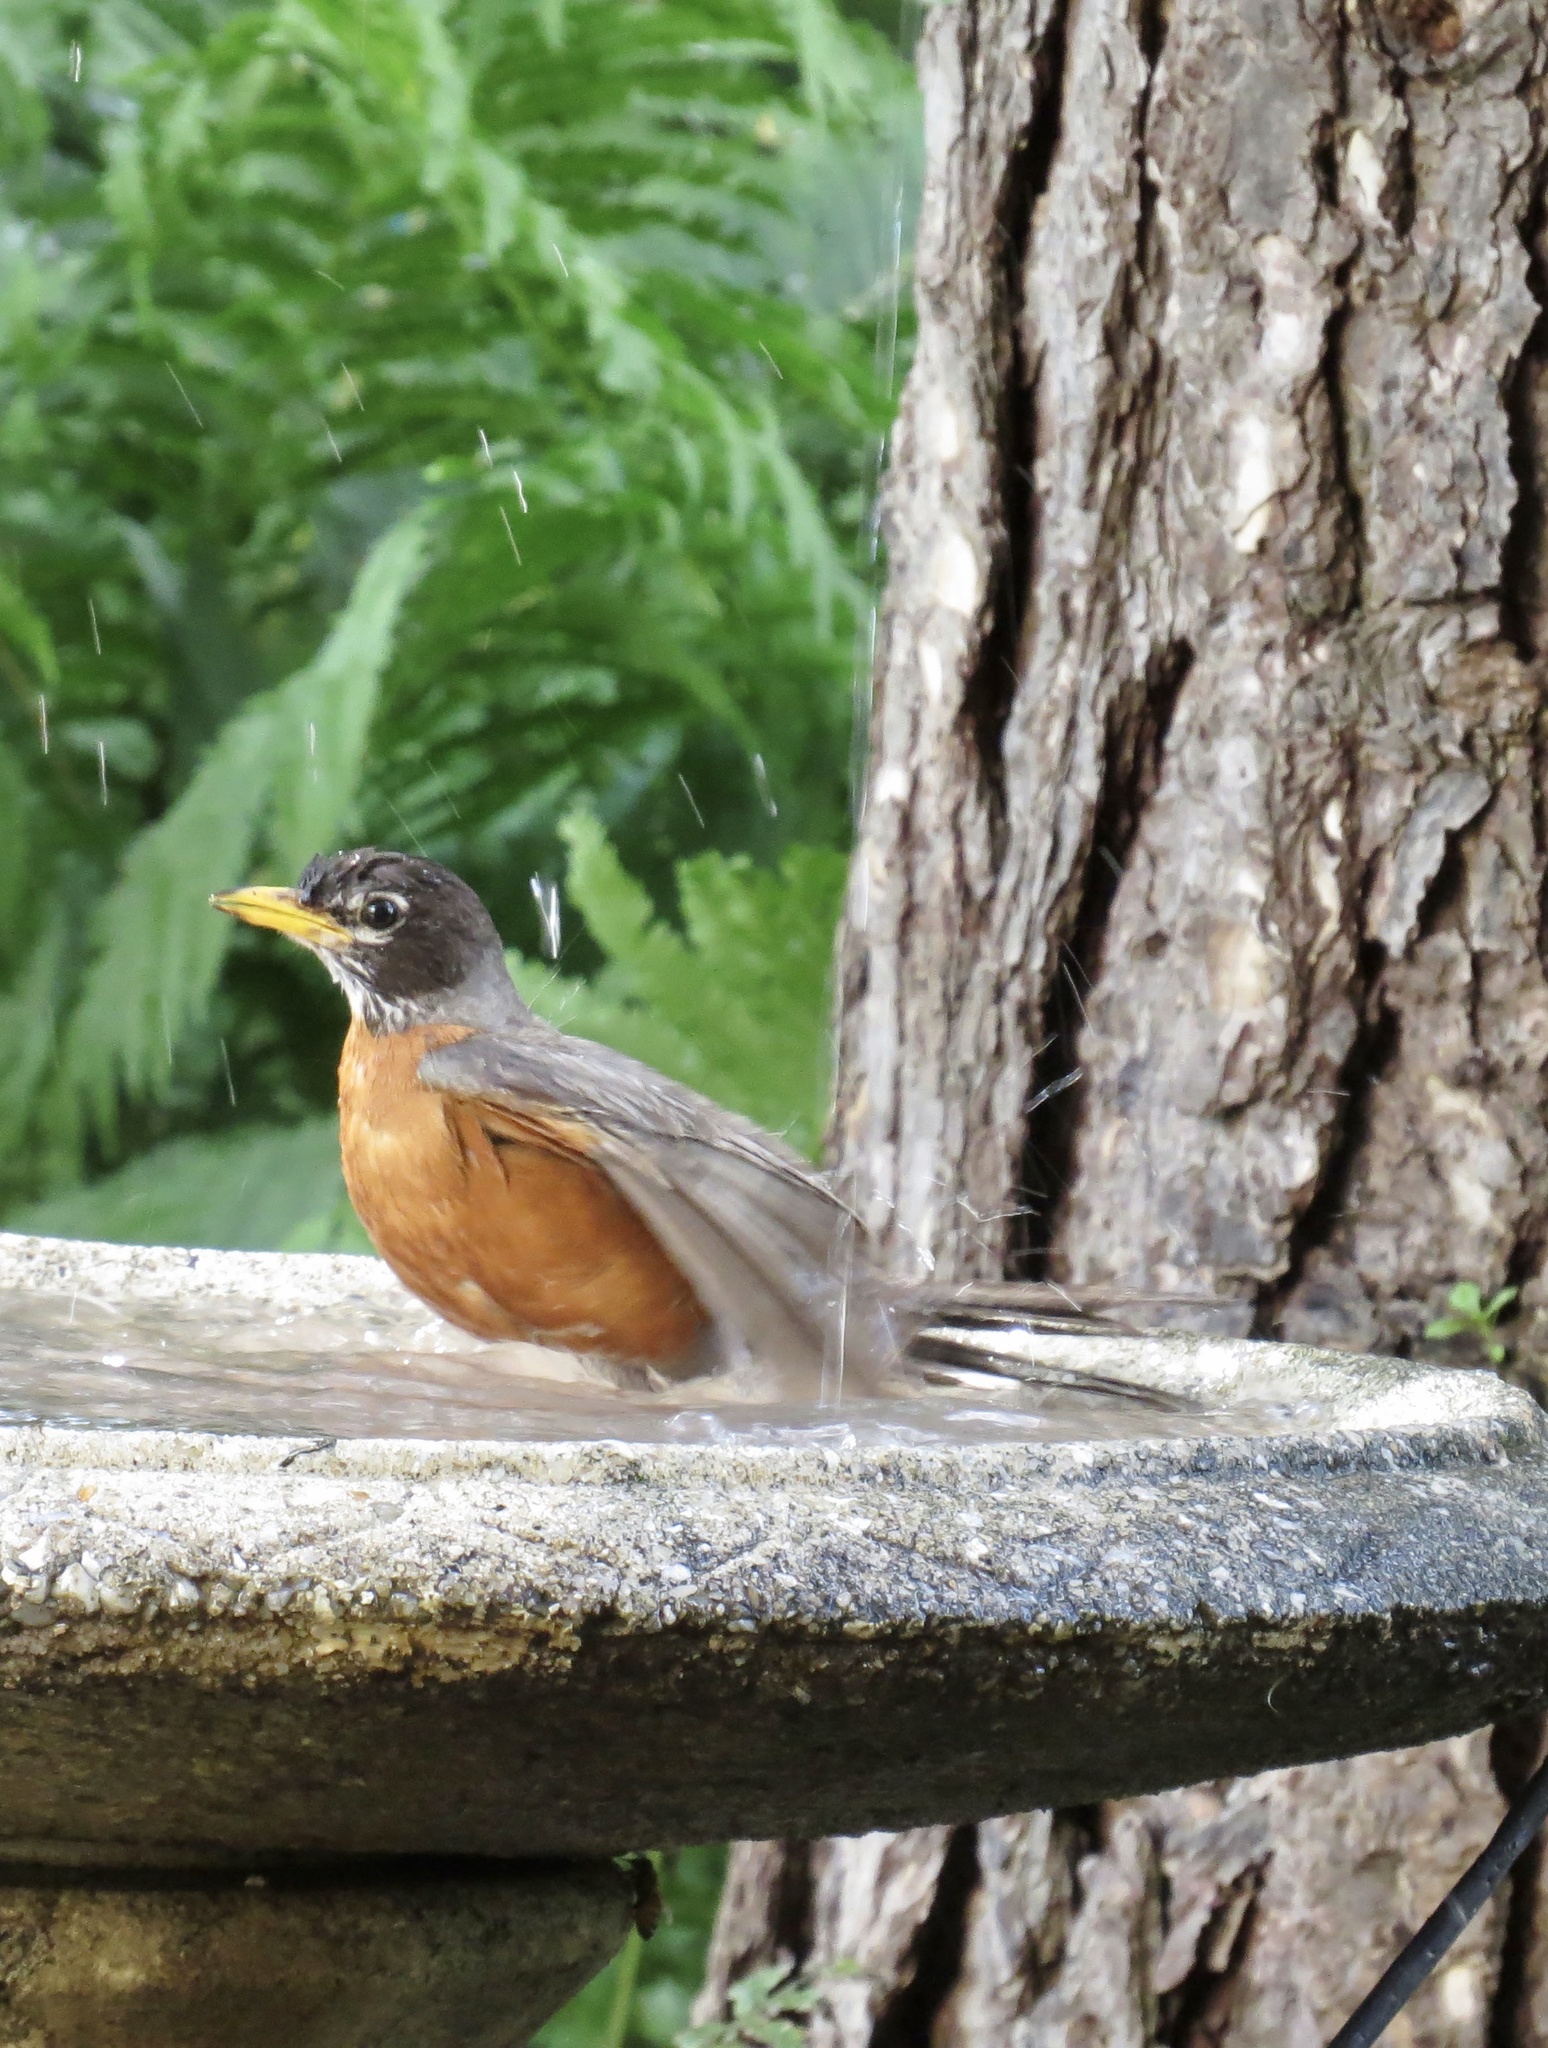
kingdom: Animalia
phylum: Chordata
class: Aves
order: Passeriformes
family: Turdidae
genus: Turdus
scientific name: Turdus migratorius
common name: American robin
